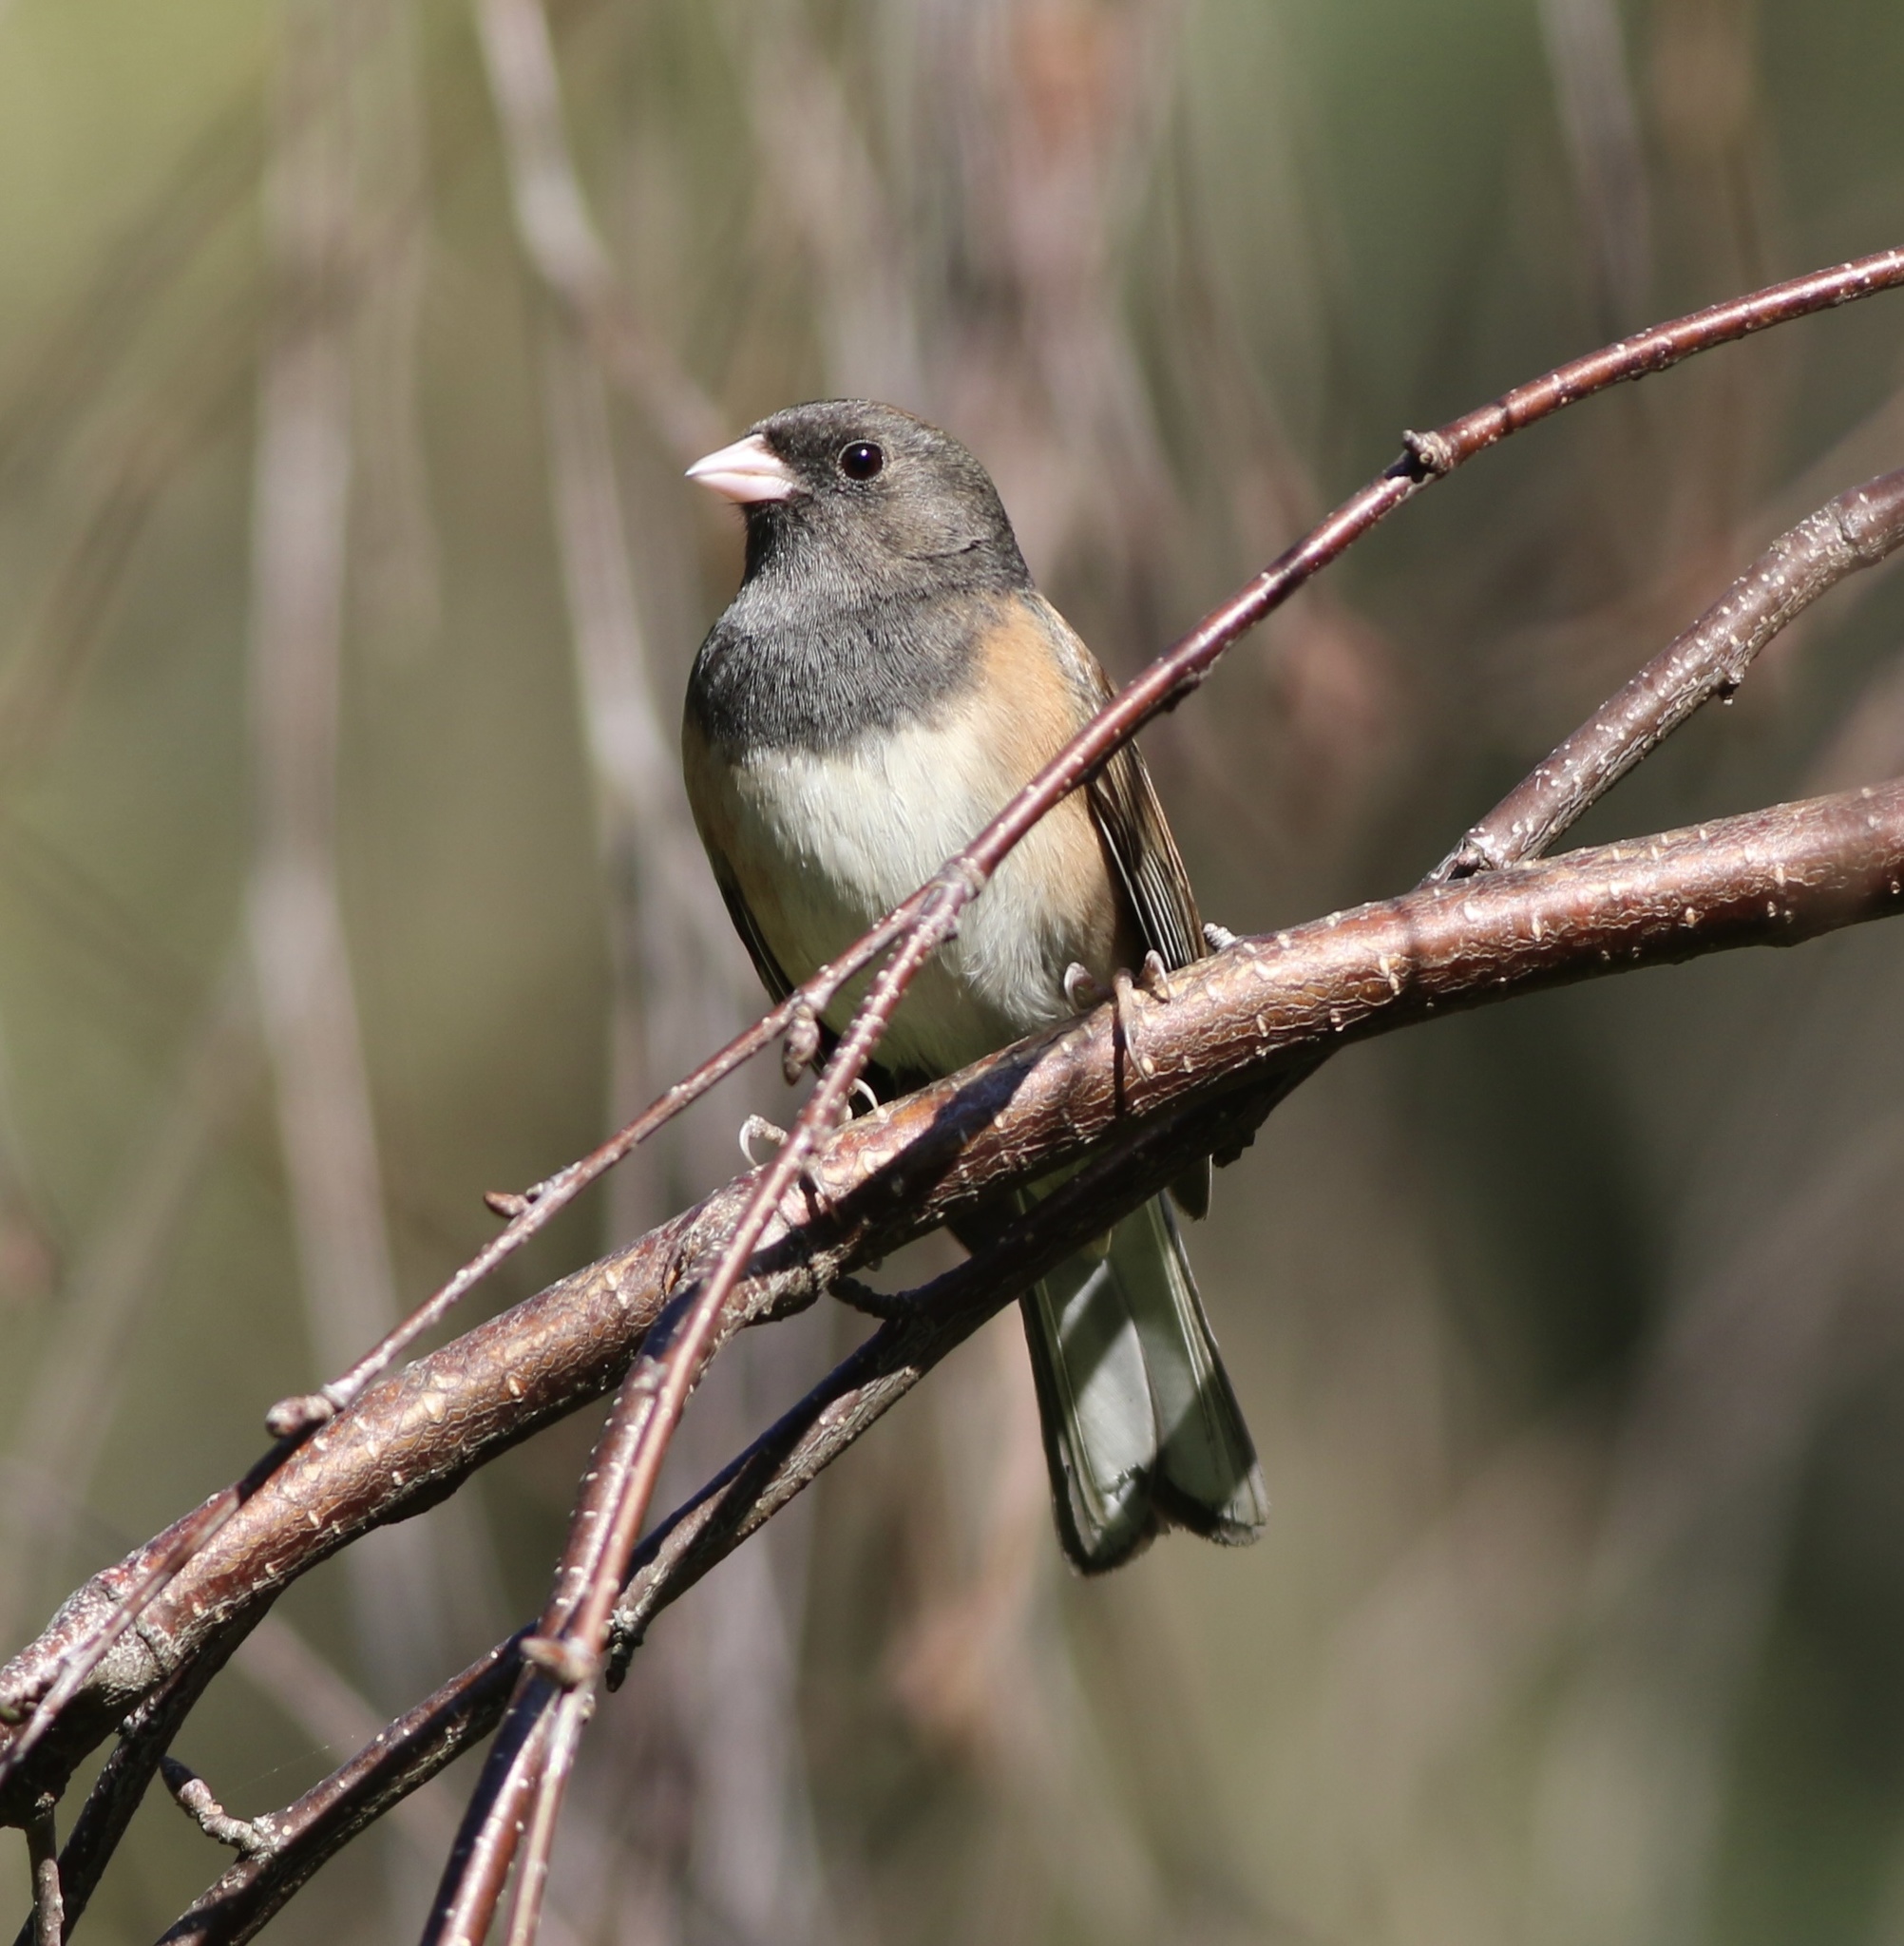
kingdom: Animalia
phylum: Chordata
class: Aves
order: Passeriformes
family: Passerellidae
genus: Junco
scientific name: Junco hyemalis
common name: Dark-eyed junco
